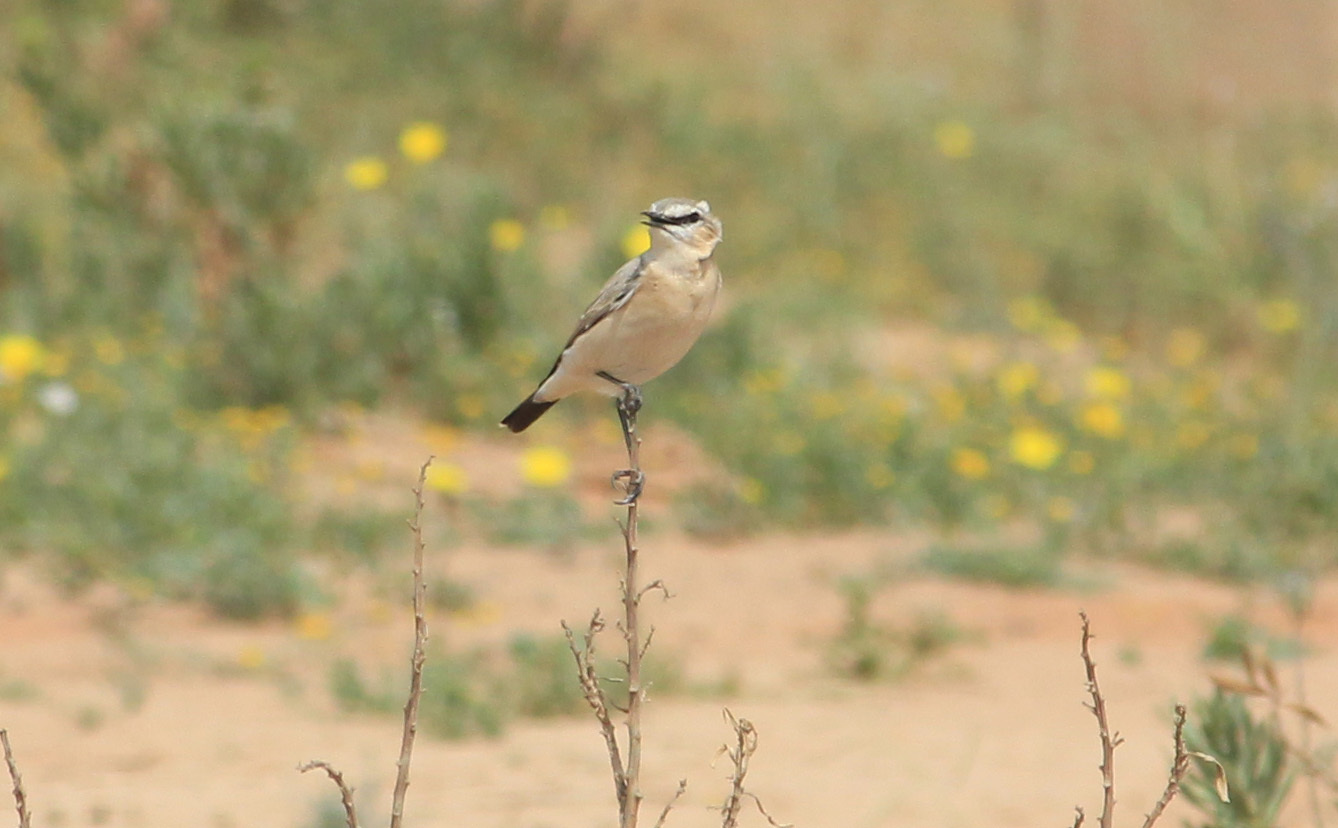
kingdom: Animalia
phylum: Chordata
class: Aves
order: Passeriformes
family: Muscicapidae
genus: Oenanthe
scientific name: Oenanthe isabellina
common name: Isabelline wheatear
